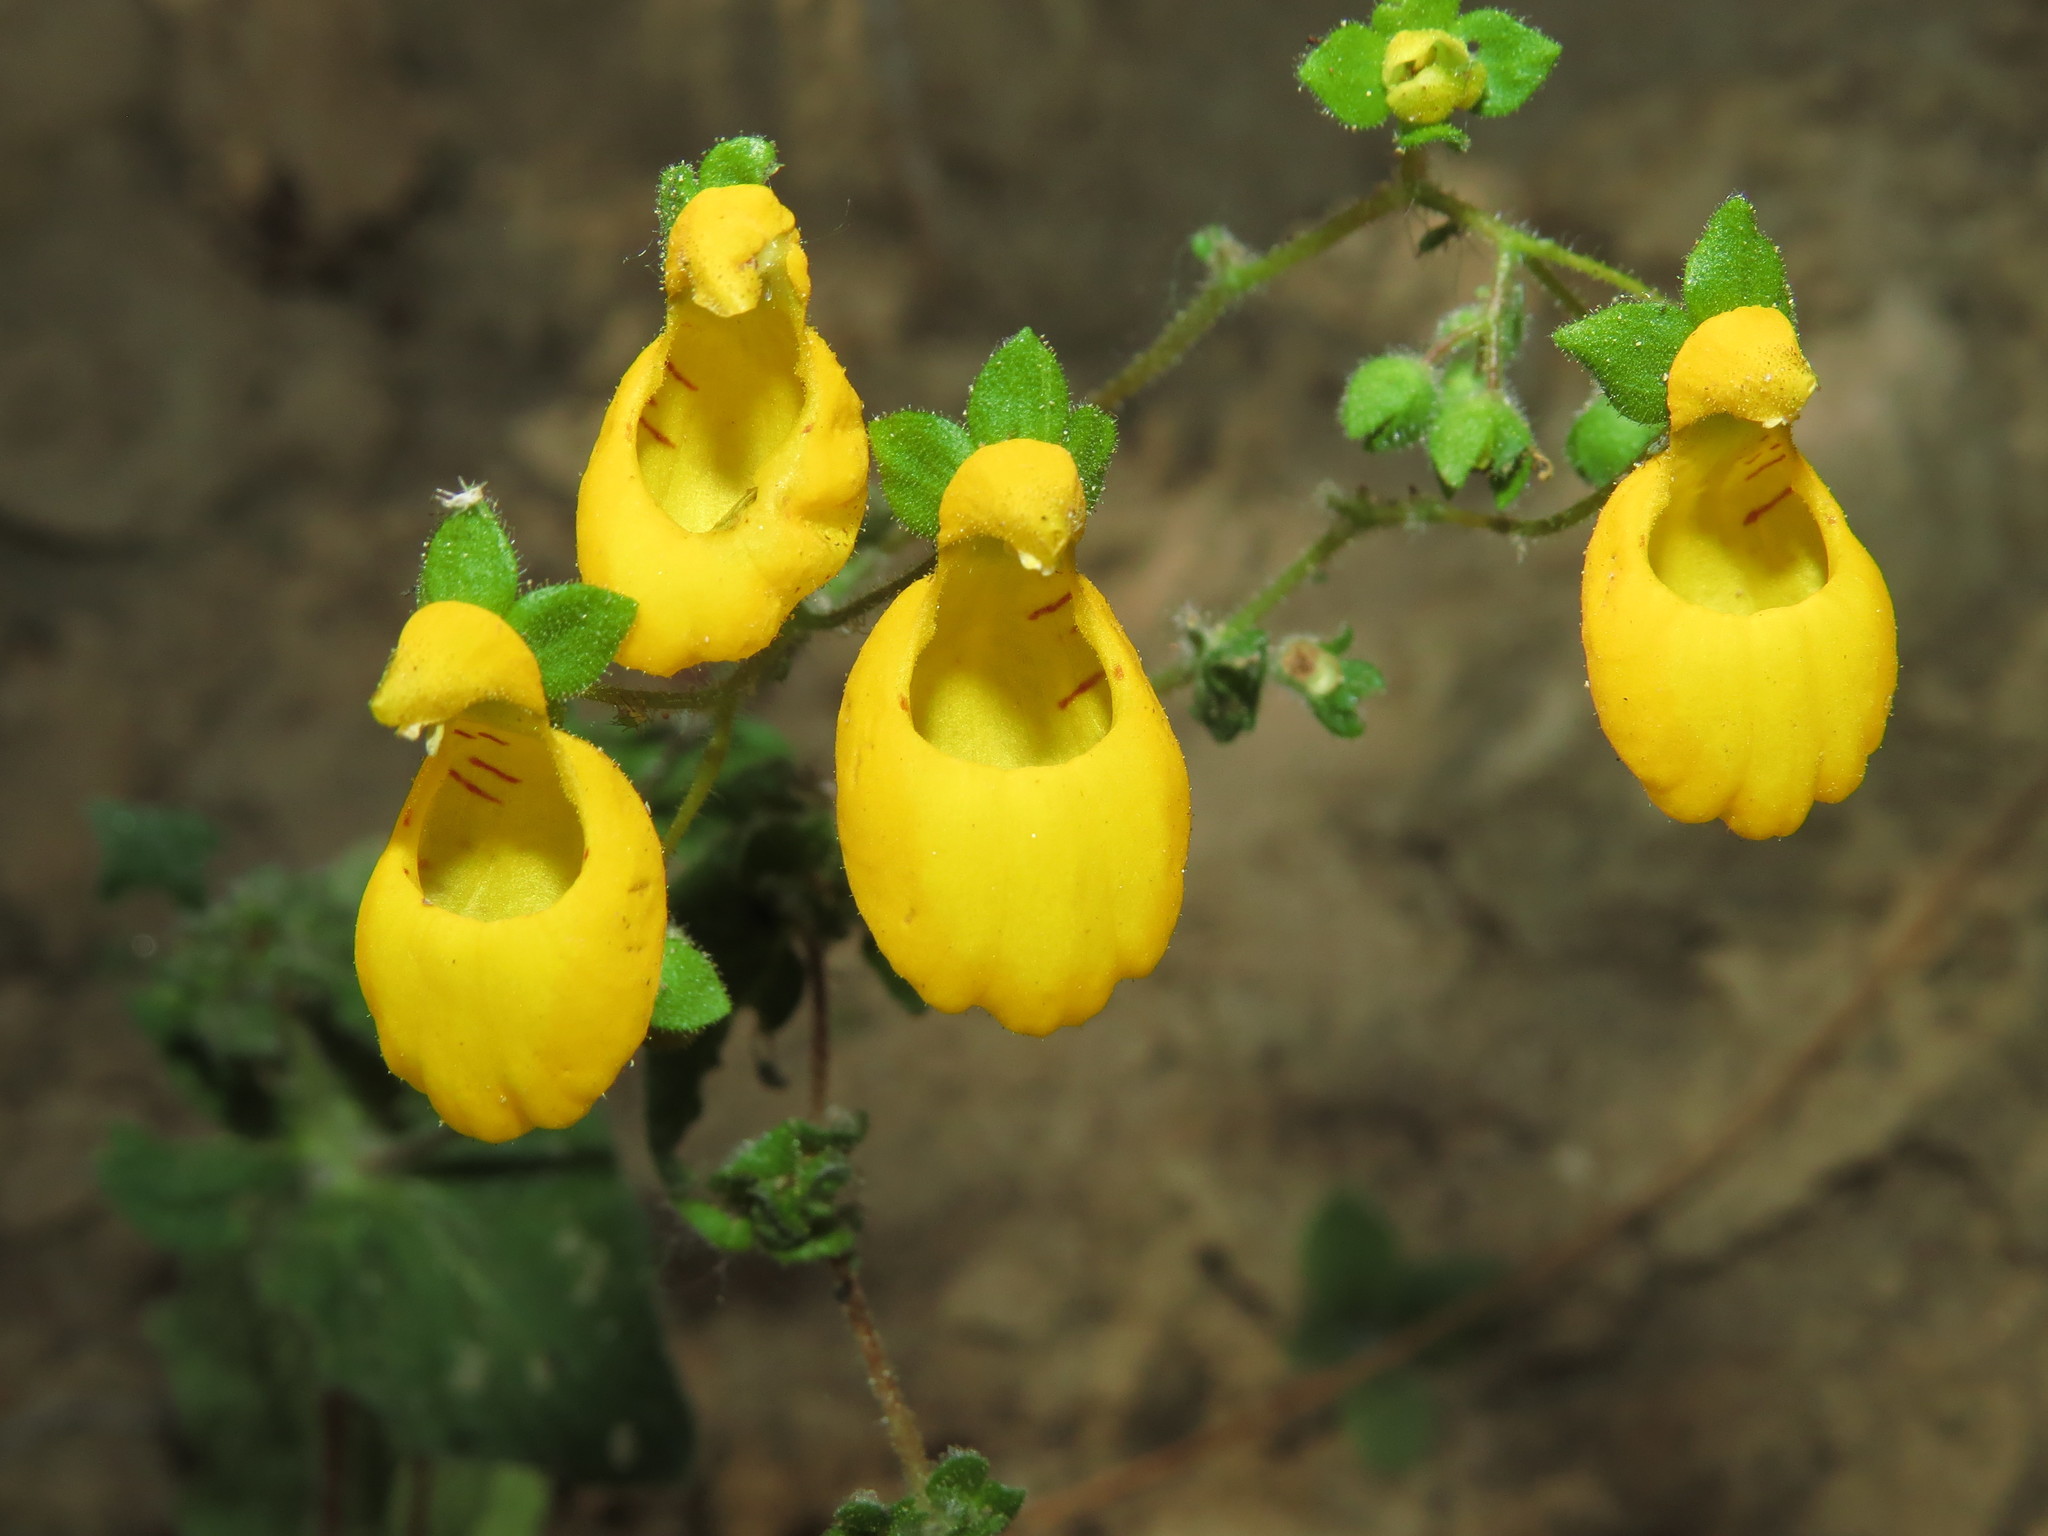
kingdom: Plantae
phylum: Tracheophyta
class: Magnoliopsida
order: Lamiales
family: Calceolariaceae
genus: Calceolaria
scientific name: Calceolaria corymbosa
